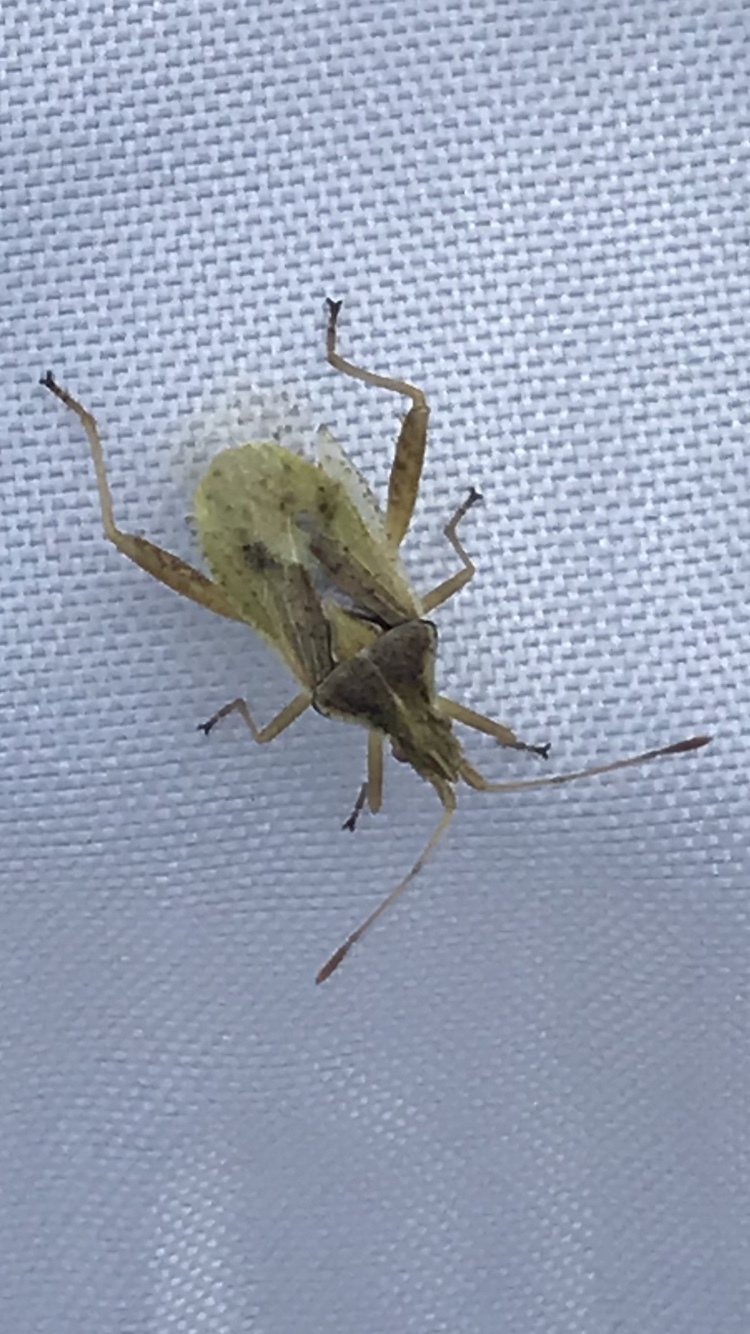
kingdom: Animalia
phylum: Arthropoda
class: Insecta
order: Hemiptera
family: Rhopalidae
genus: Harmostes
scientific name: Harmostes reflexulus
